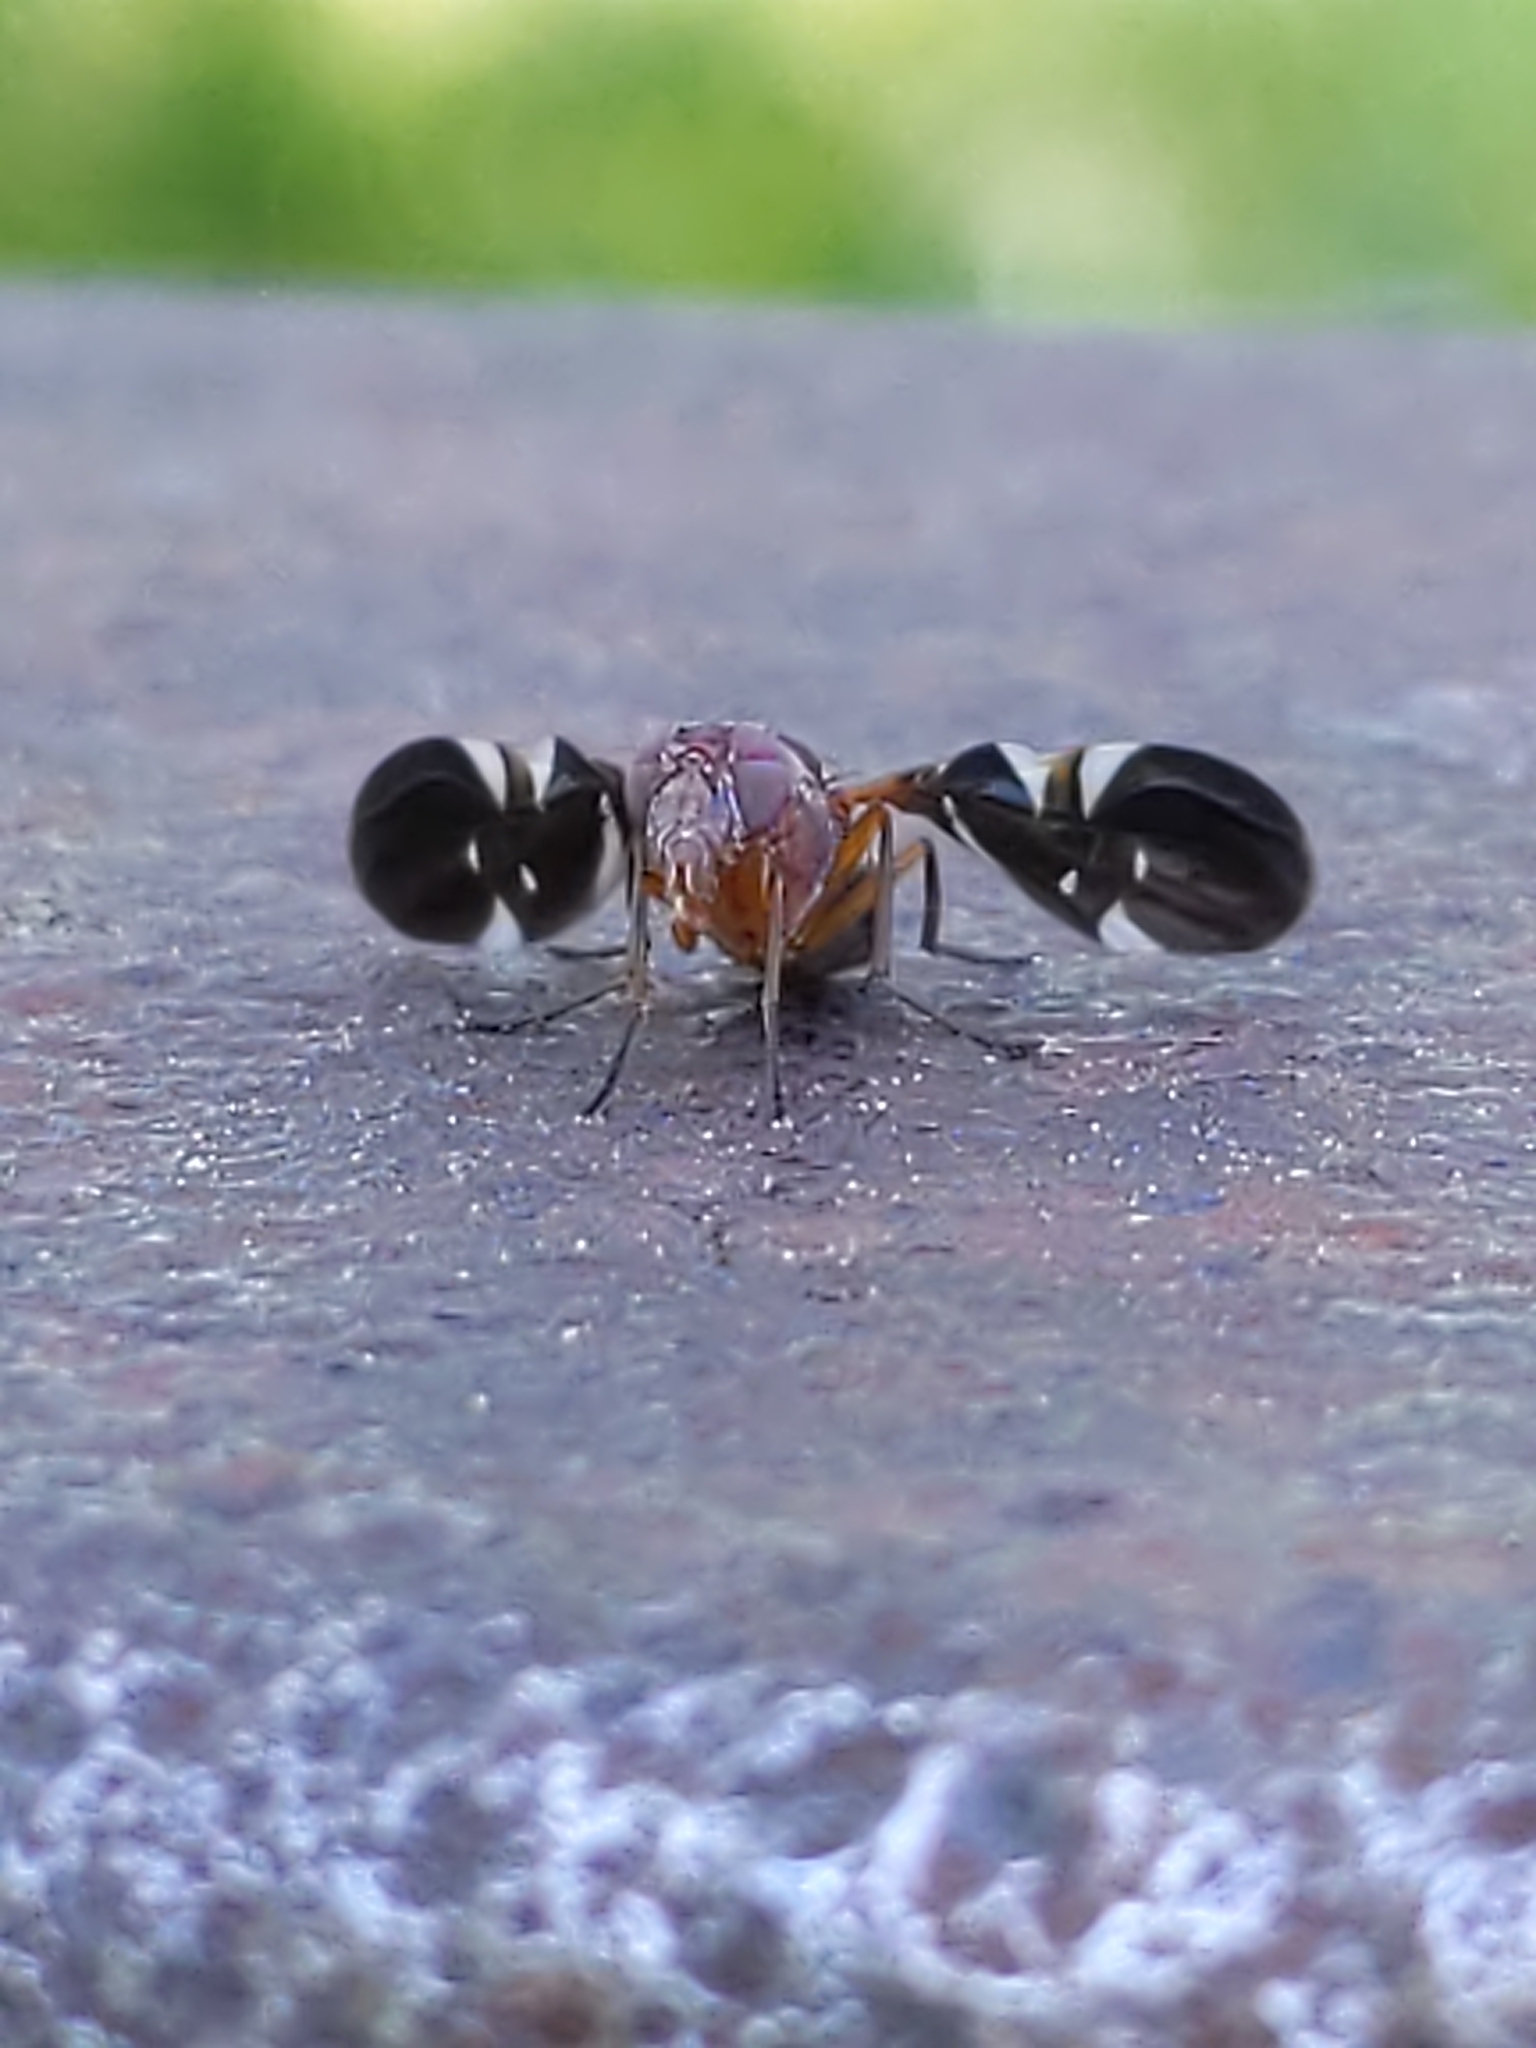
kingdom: Animalia
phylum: Arthropoda
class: Insecta
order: Diptera
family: Ulidiidae
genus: Delphinia
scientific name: Delphinia picta
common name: Common picture-winged fly
